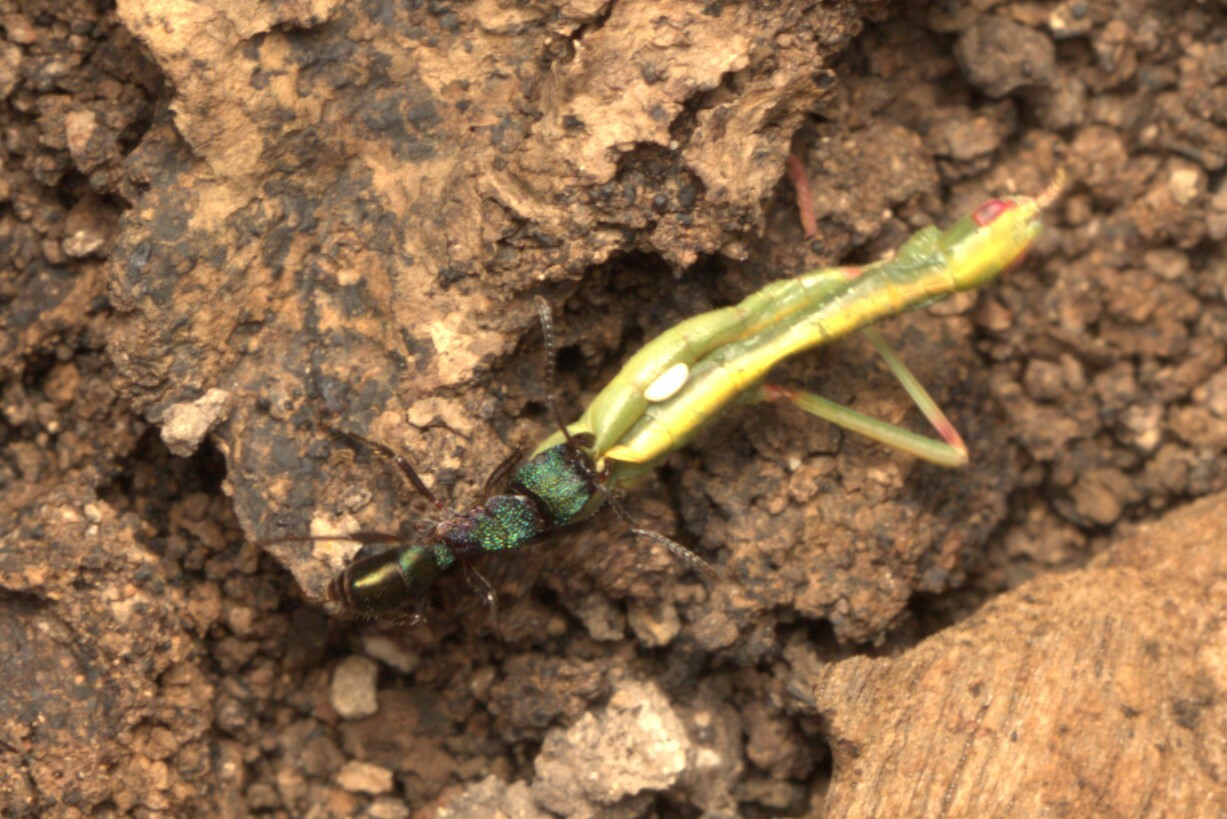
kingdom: Animalia
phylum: Arthropoda
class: Insecta
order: Hymenoptera
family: Formicidae
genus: Rhytidoponera
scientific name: Rhytidoponera metallica
